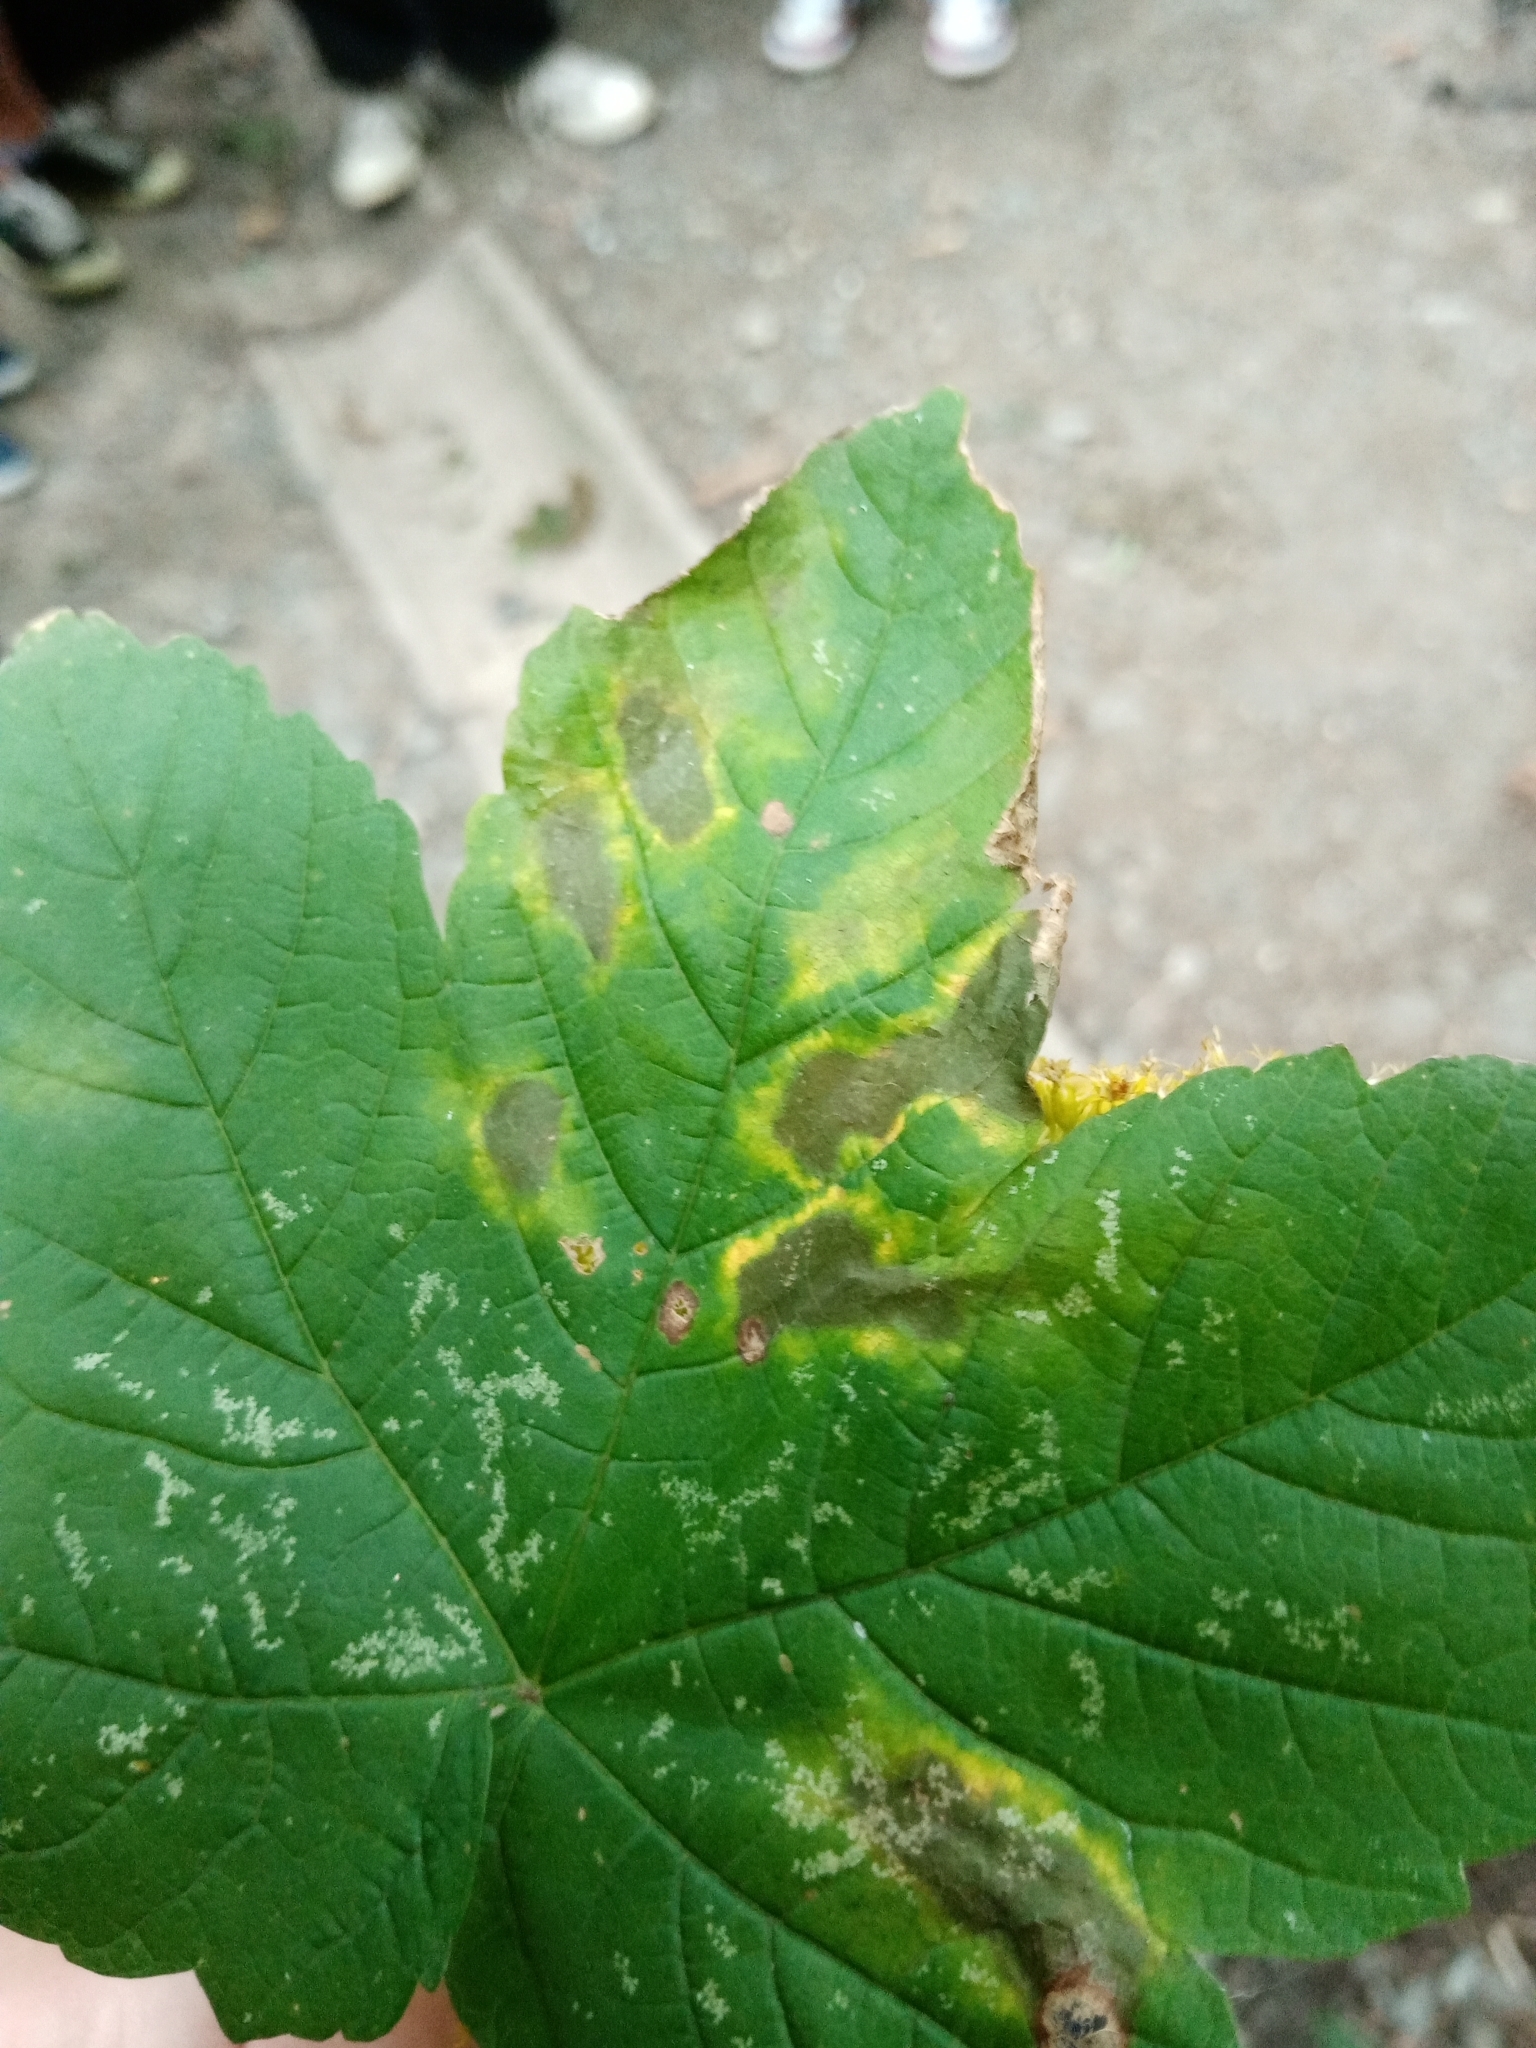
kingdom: Fungi
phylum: Ascomycota
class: Leotiomycetes
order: Rhytismatales
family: Rhytismataceae
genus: Rhytisma
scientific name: Rhytisma acerinum
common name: European tar spot
